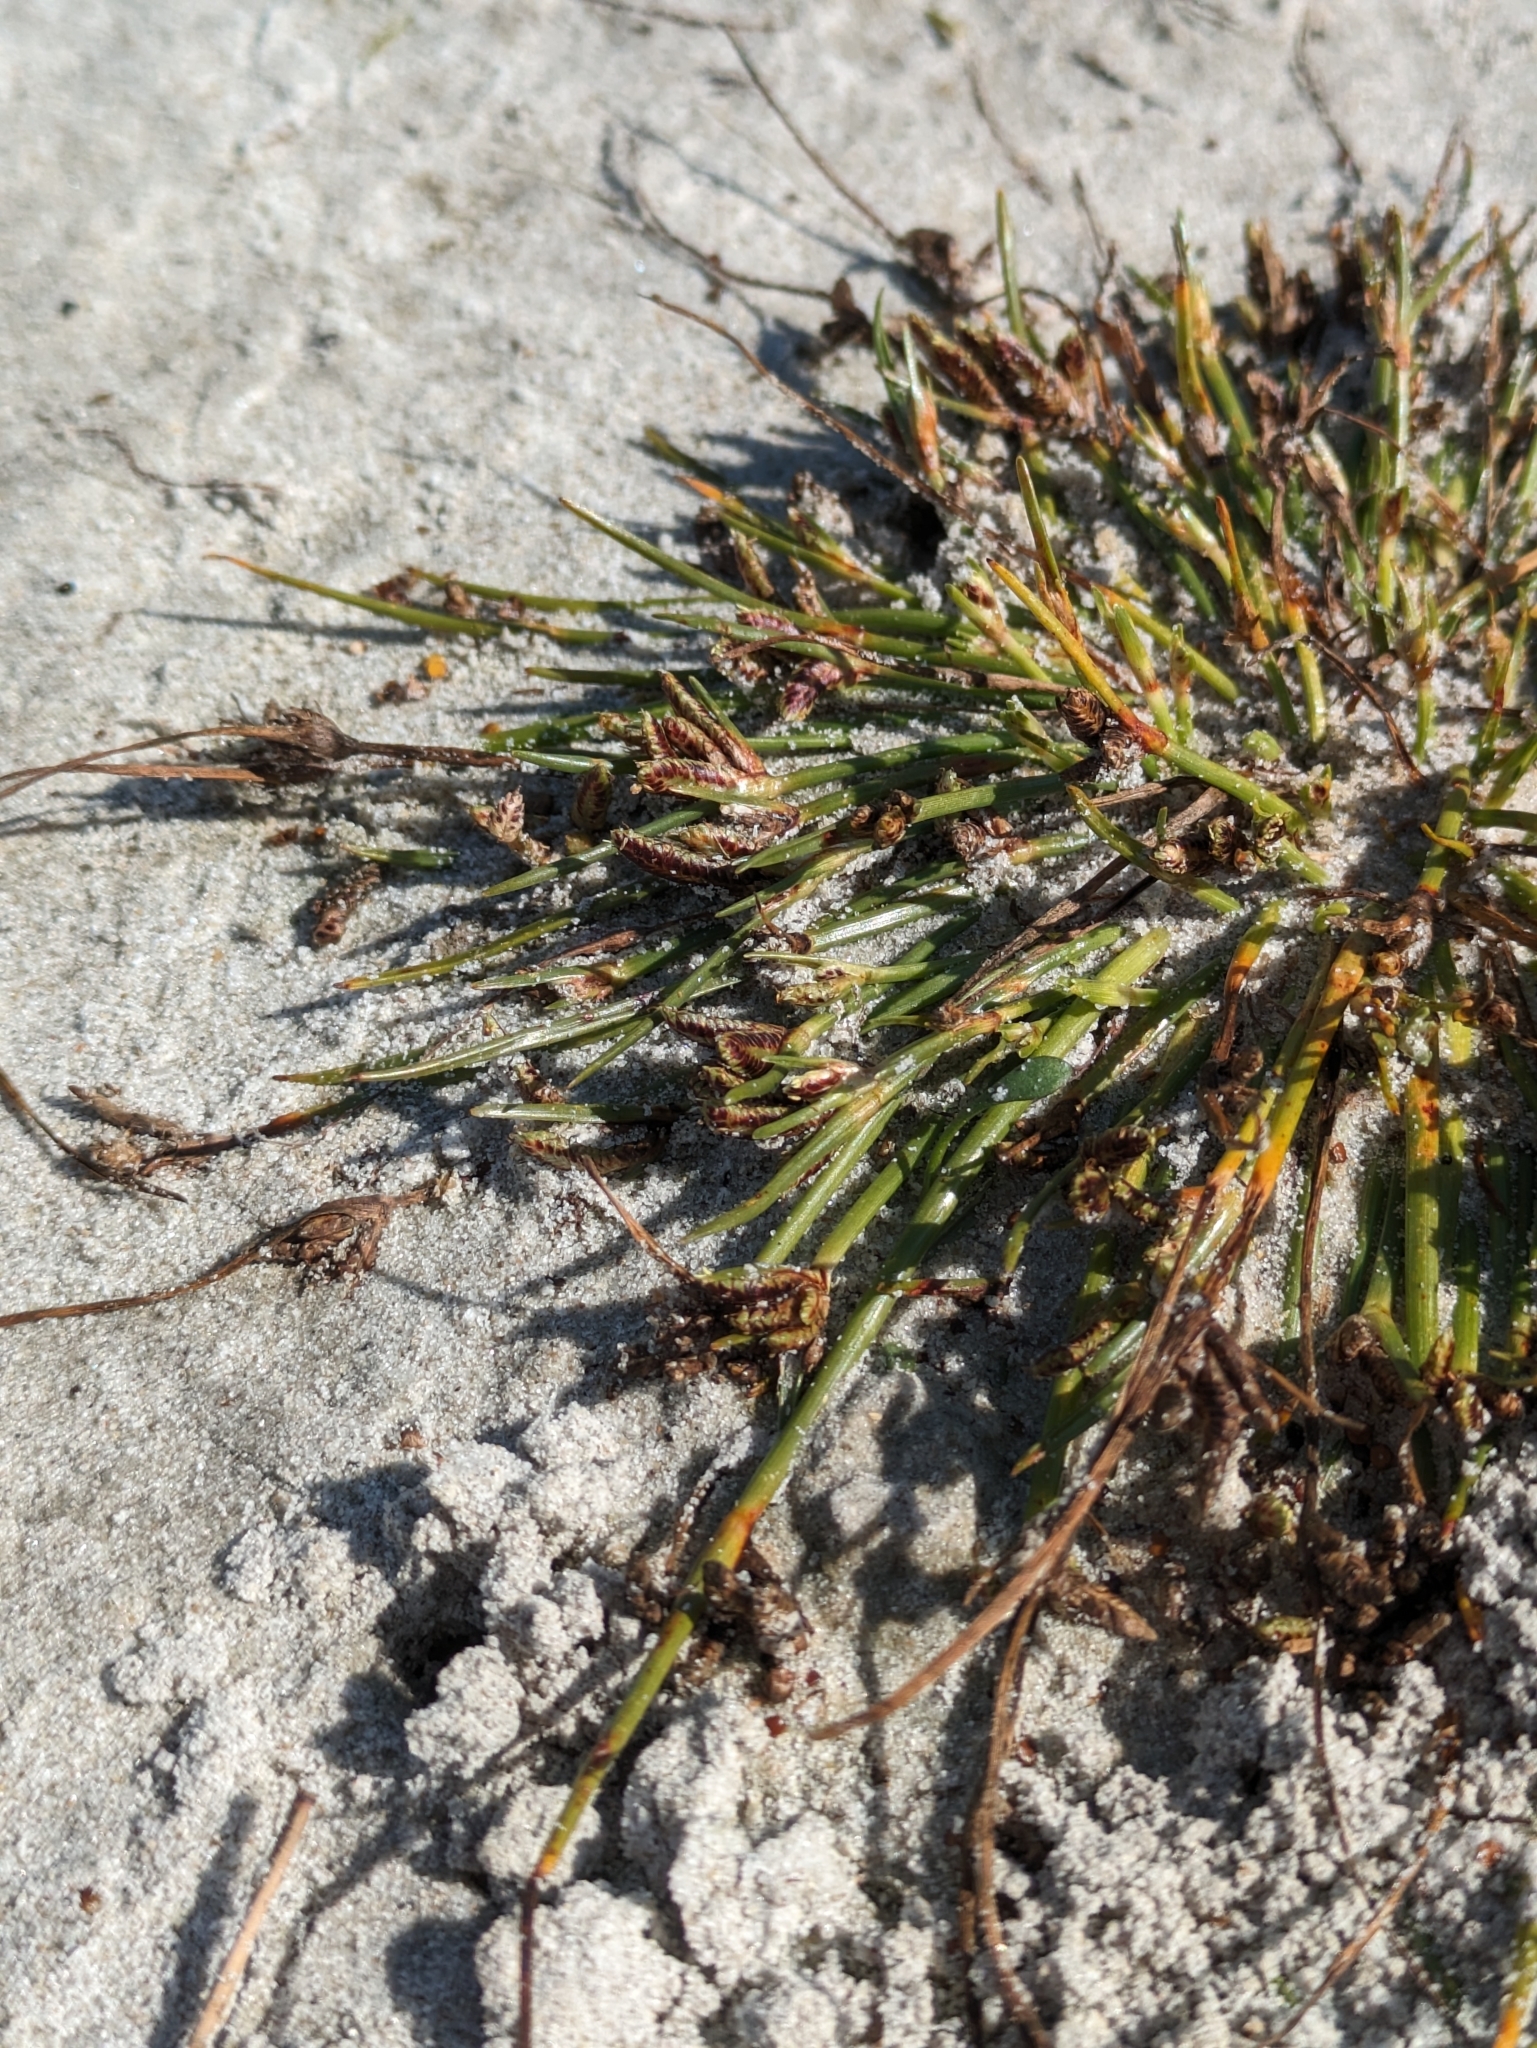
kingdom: Plantae
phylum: Tracheophyta
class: Liliopsida
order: Poales
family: Cyperaceae
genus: Cyperus
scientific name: Cyperus pannonicus
